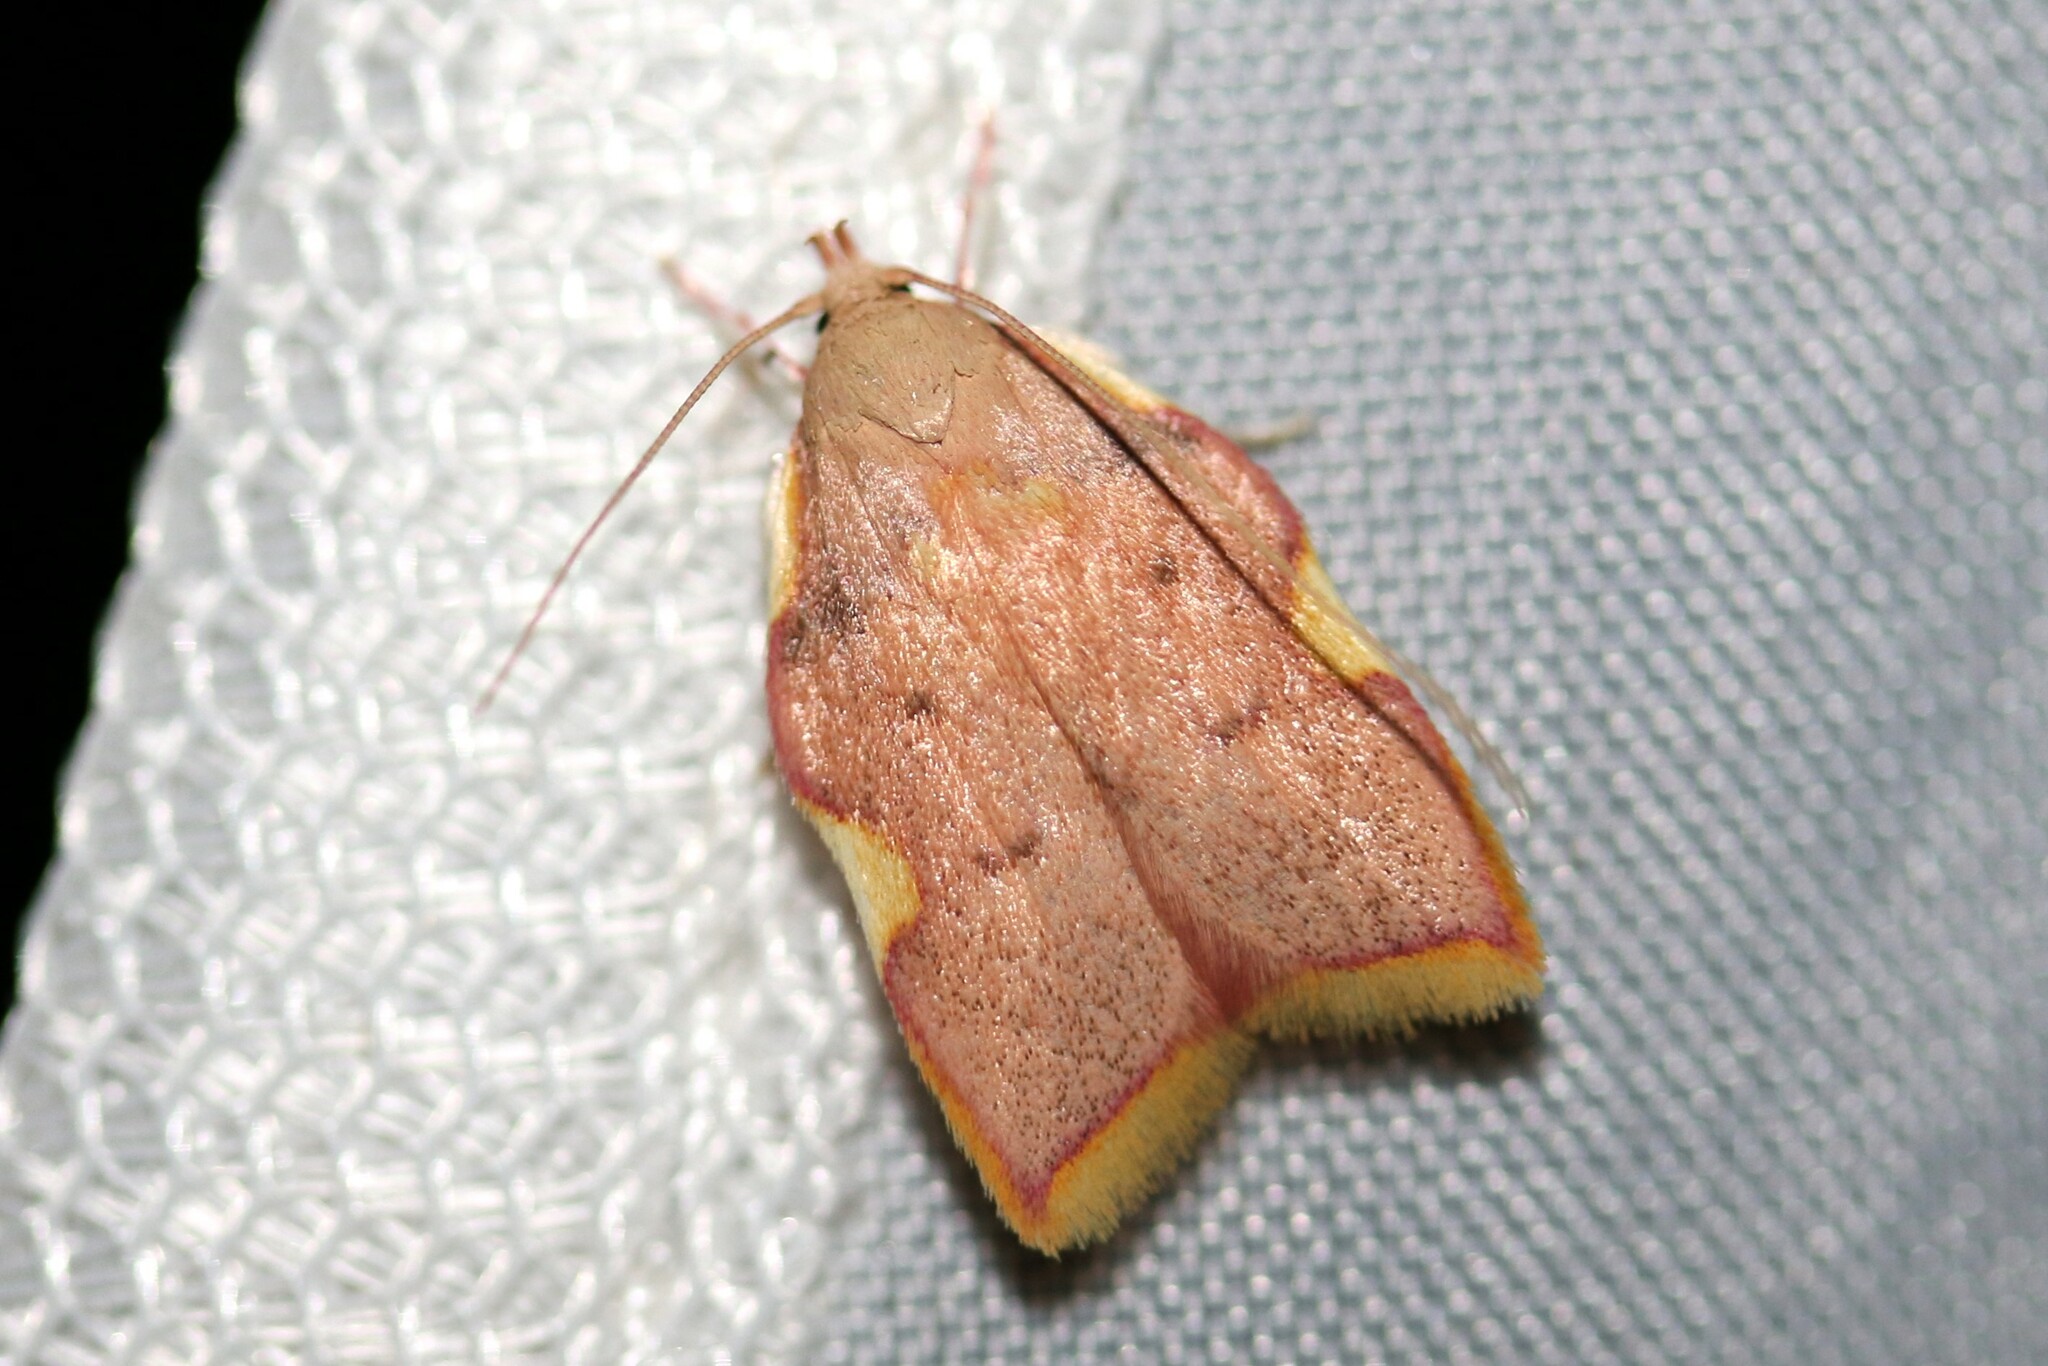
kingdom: Animalia
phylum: Arthropoda
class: Insecta
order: Lepidoptera
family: Peleopodidae
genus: Carcina
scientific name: Carcina quercana
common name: Moth
